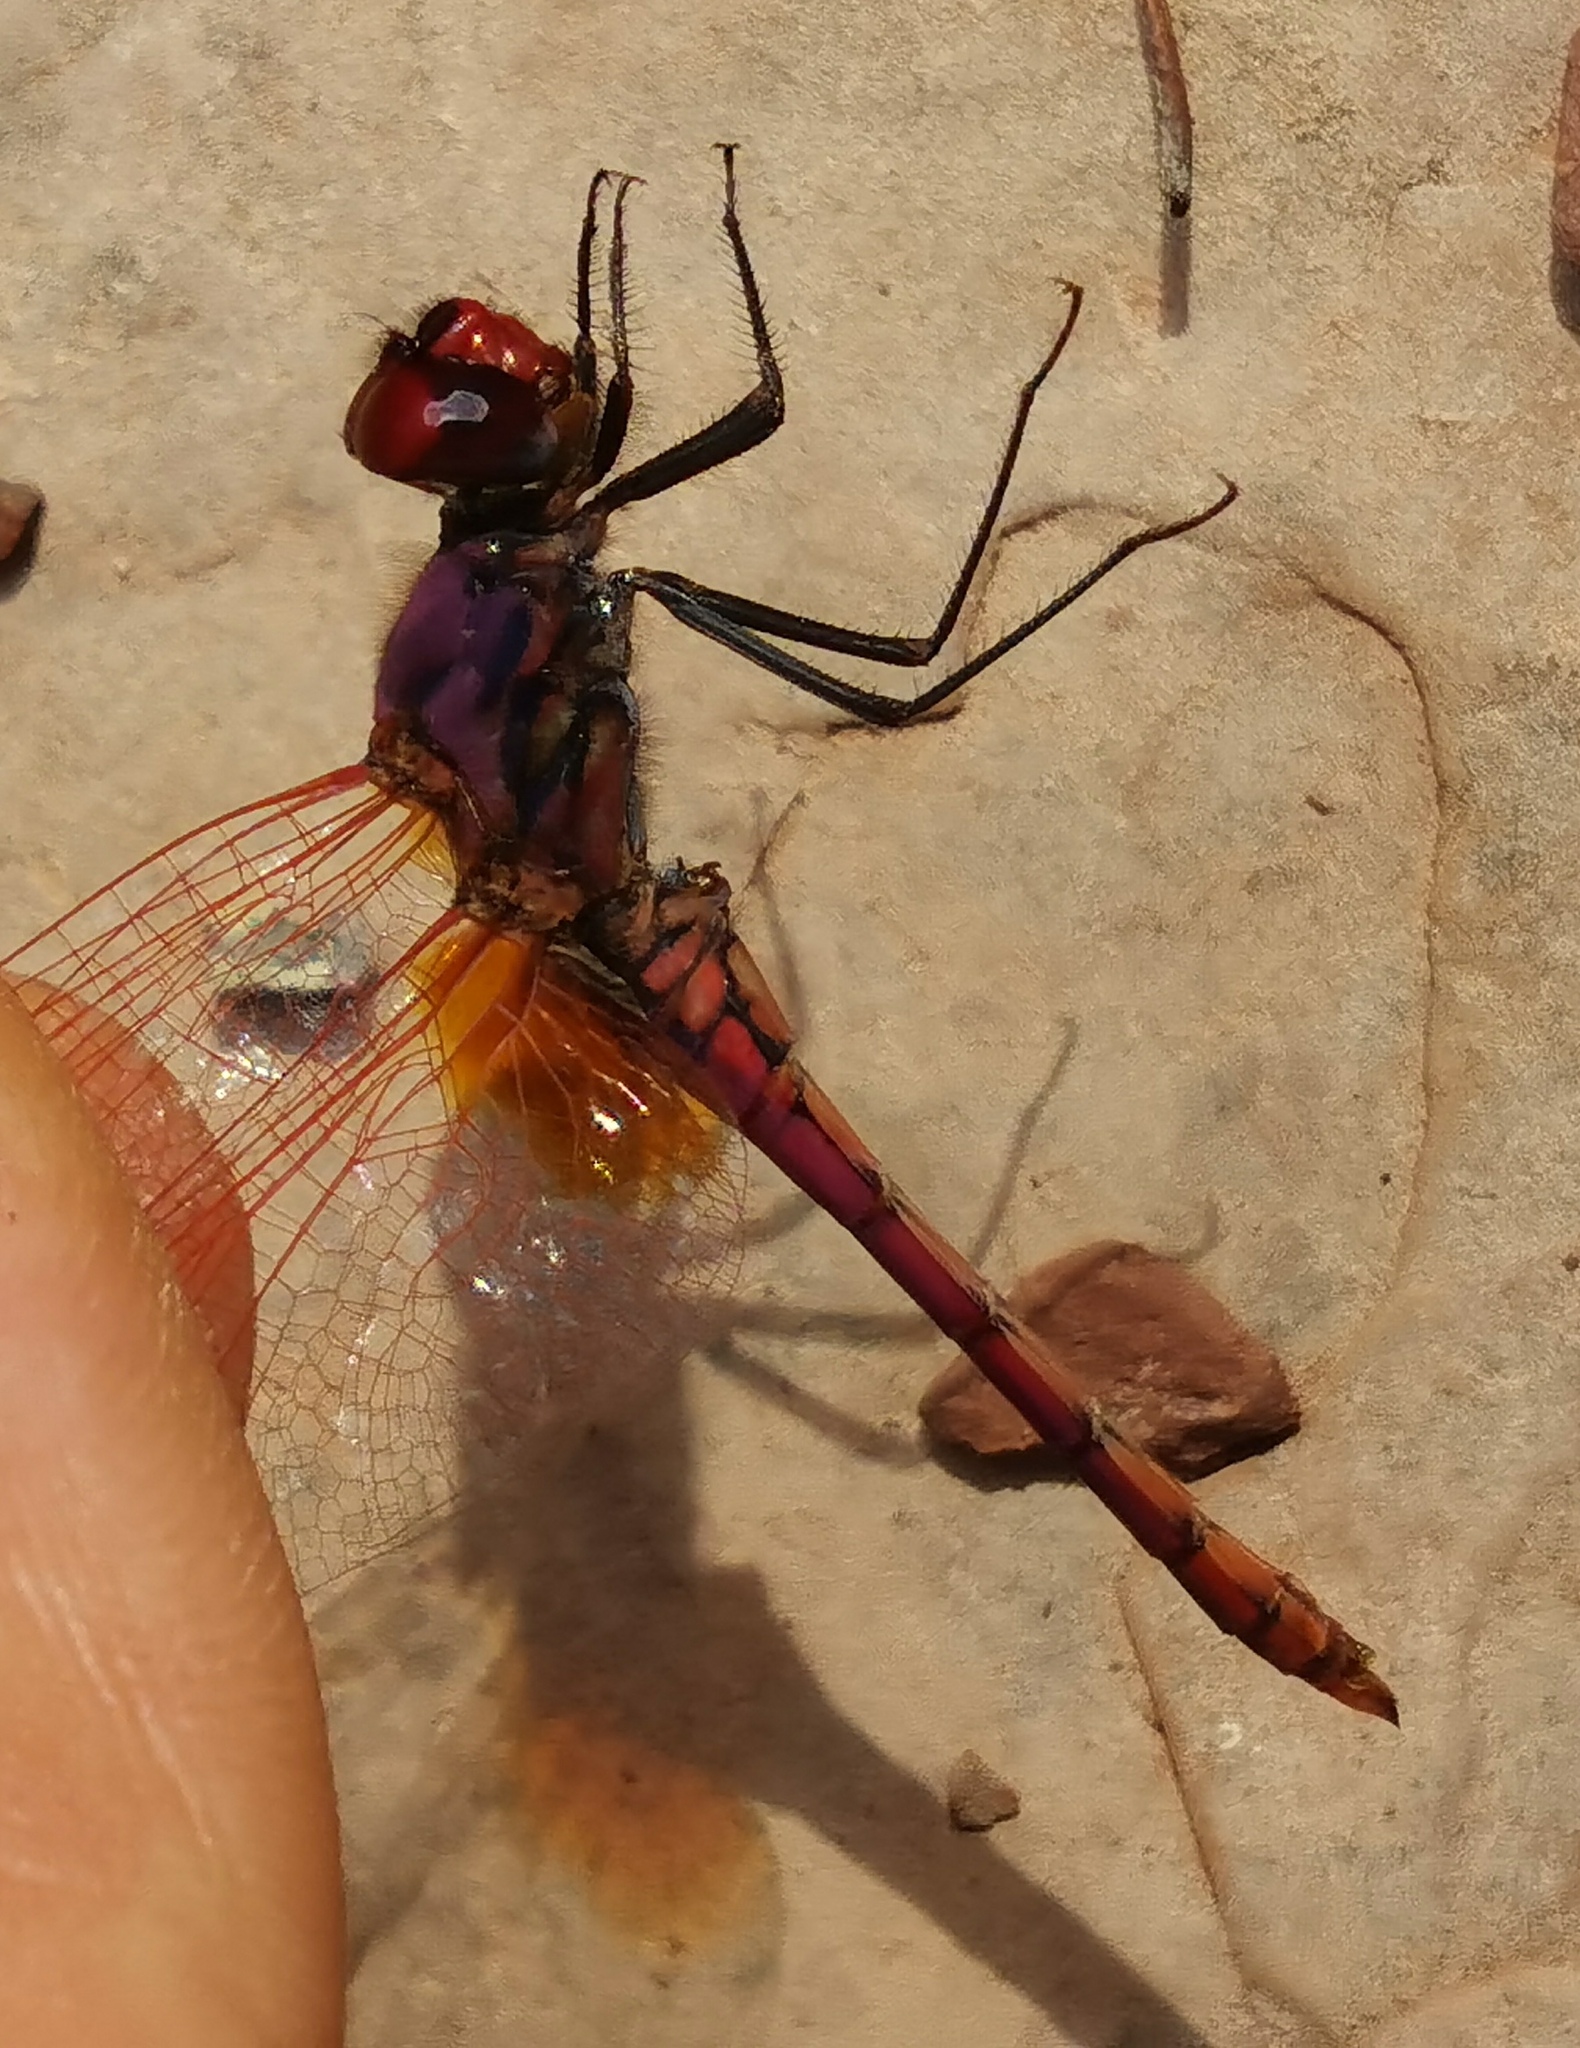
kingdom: Animalia
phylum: Arthropoda
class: Insecta
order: Odonata
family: Libellulidae
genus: Trithemis
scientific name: Trithemis annulata
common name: Violet dropwing
